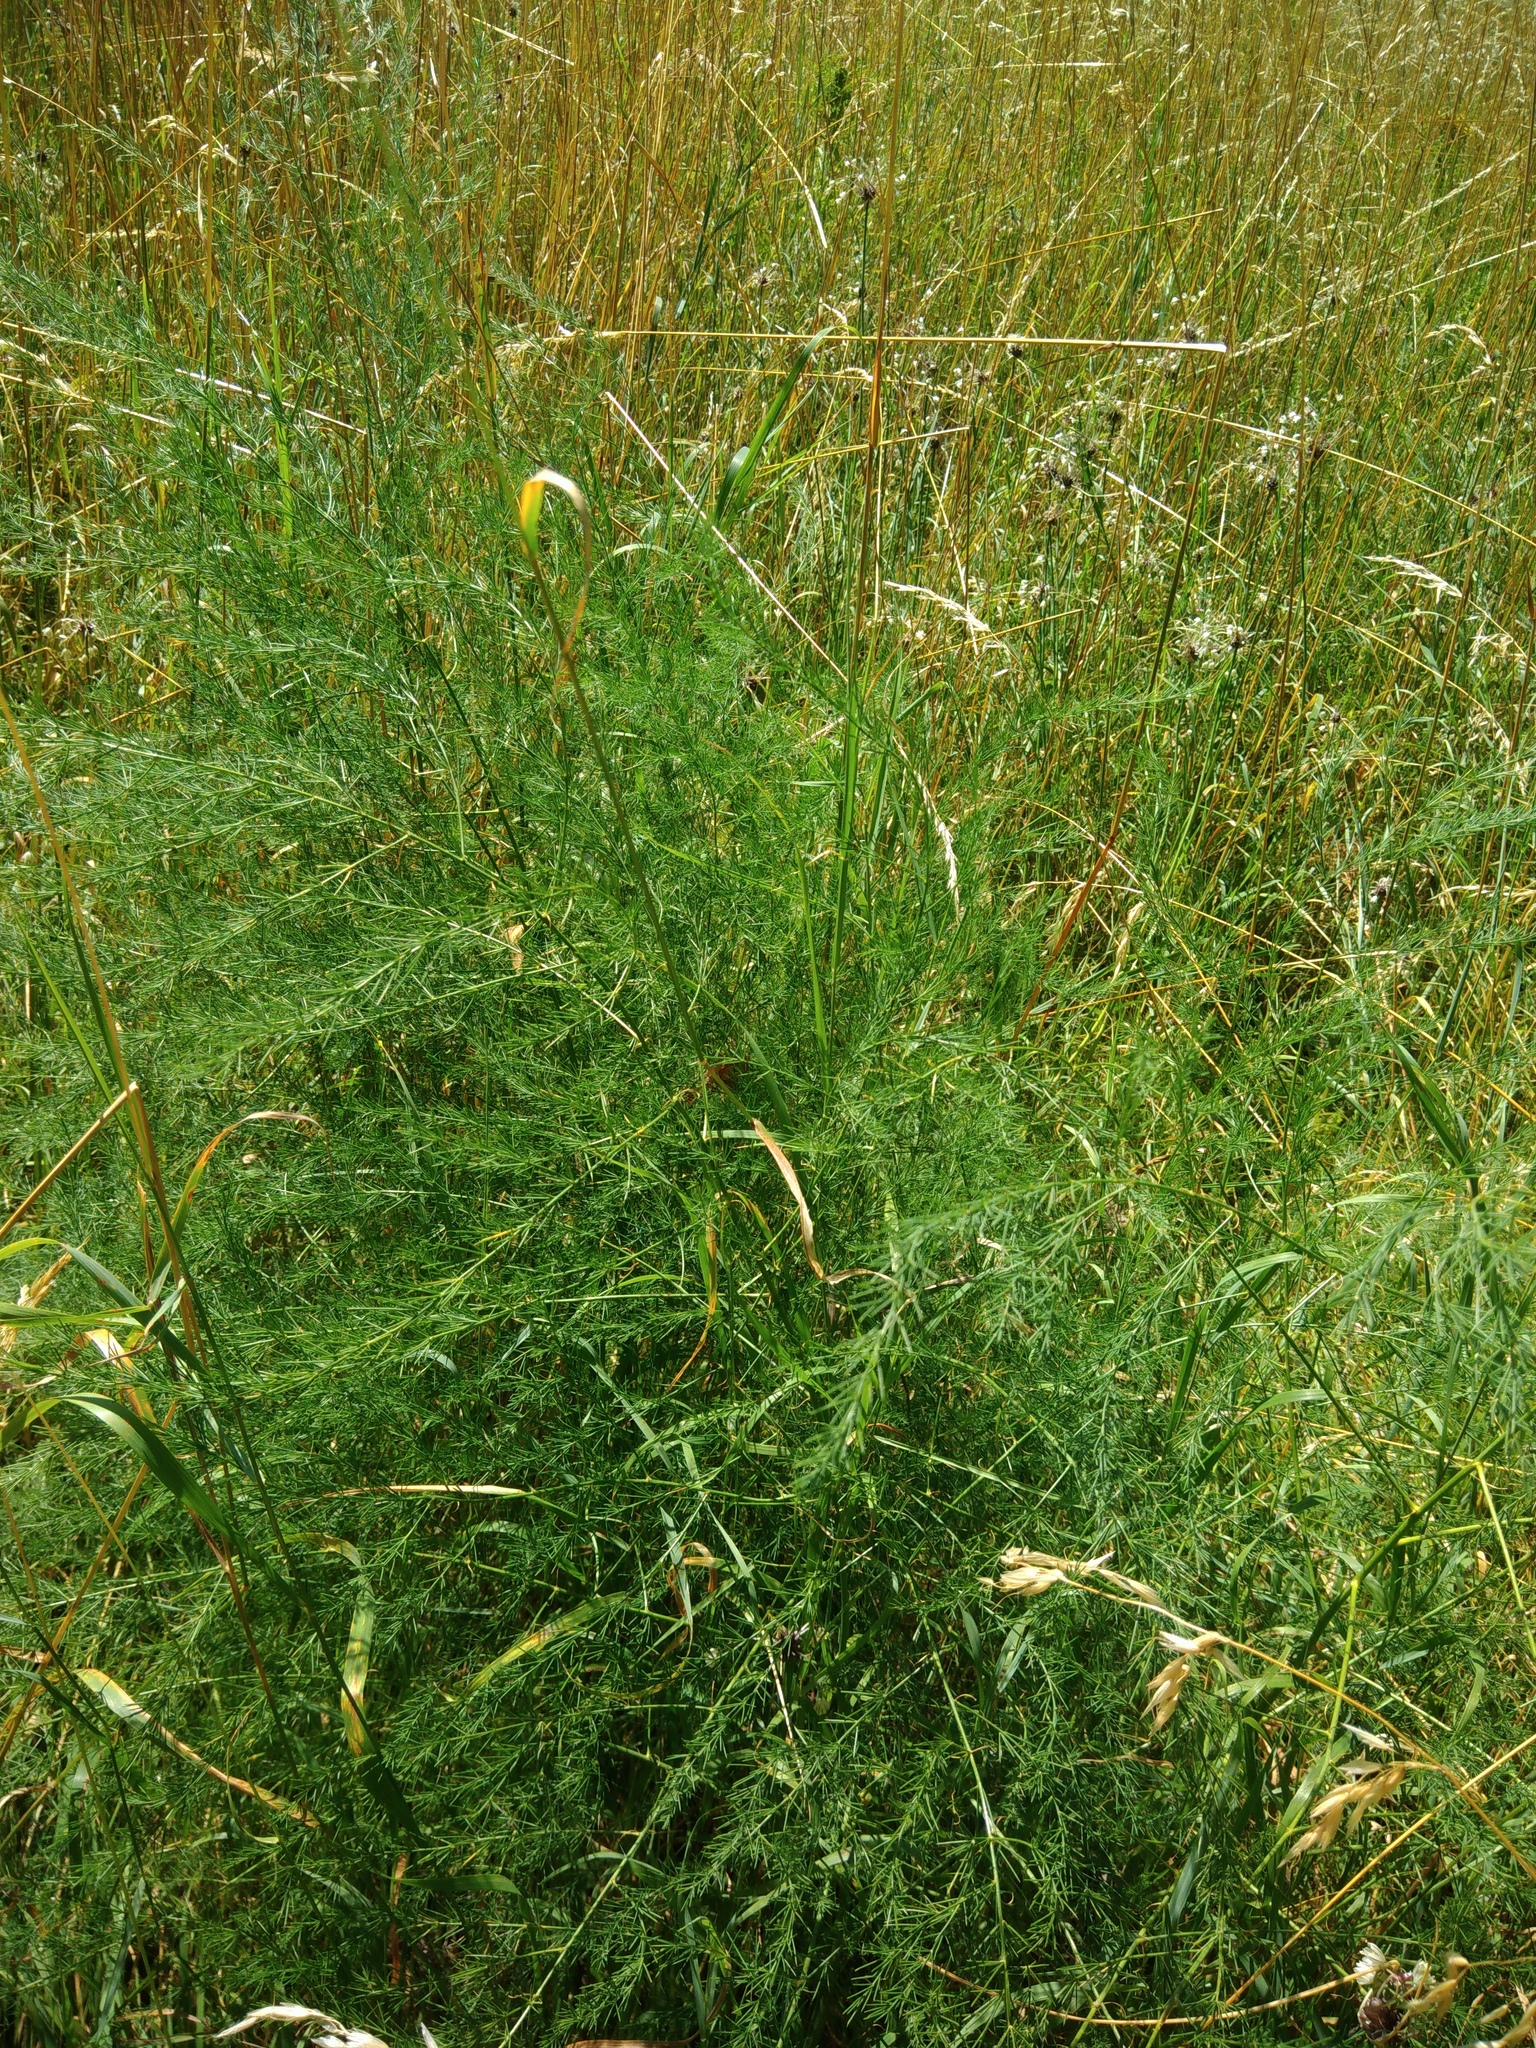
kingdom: Plantae
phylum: Tracheophyta
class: Liliopsida
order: Asparagales
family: Asparagaceae
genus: Asparagus
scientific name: Asparagus officinalis
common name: Garden asparagus
